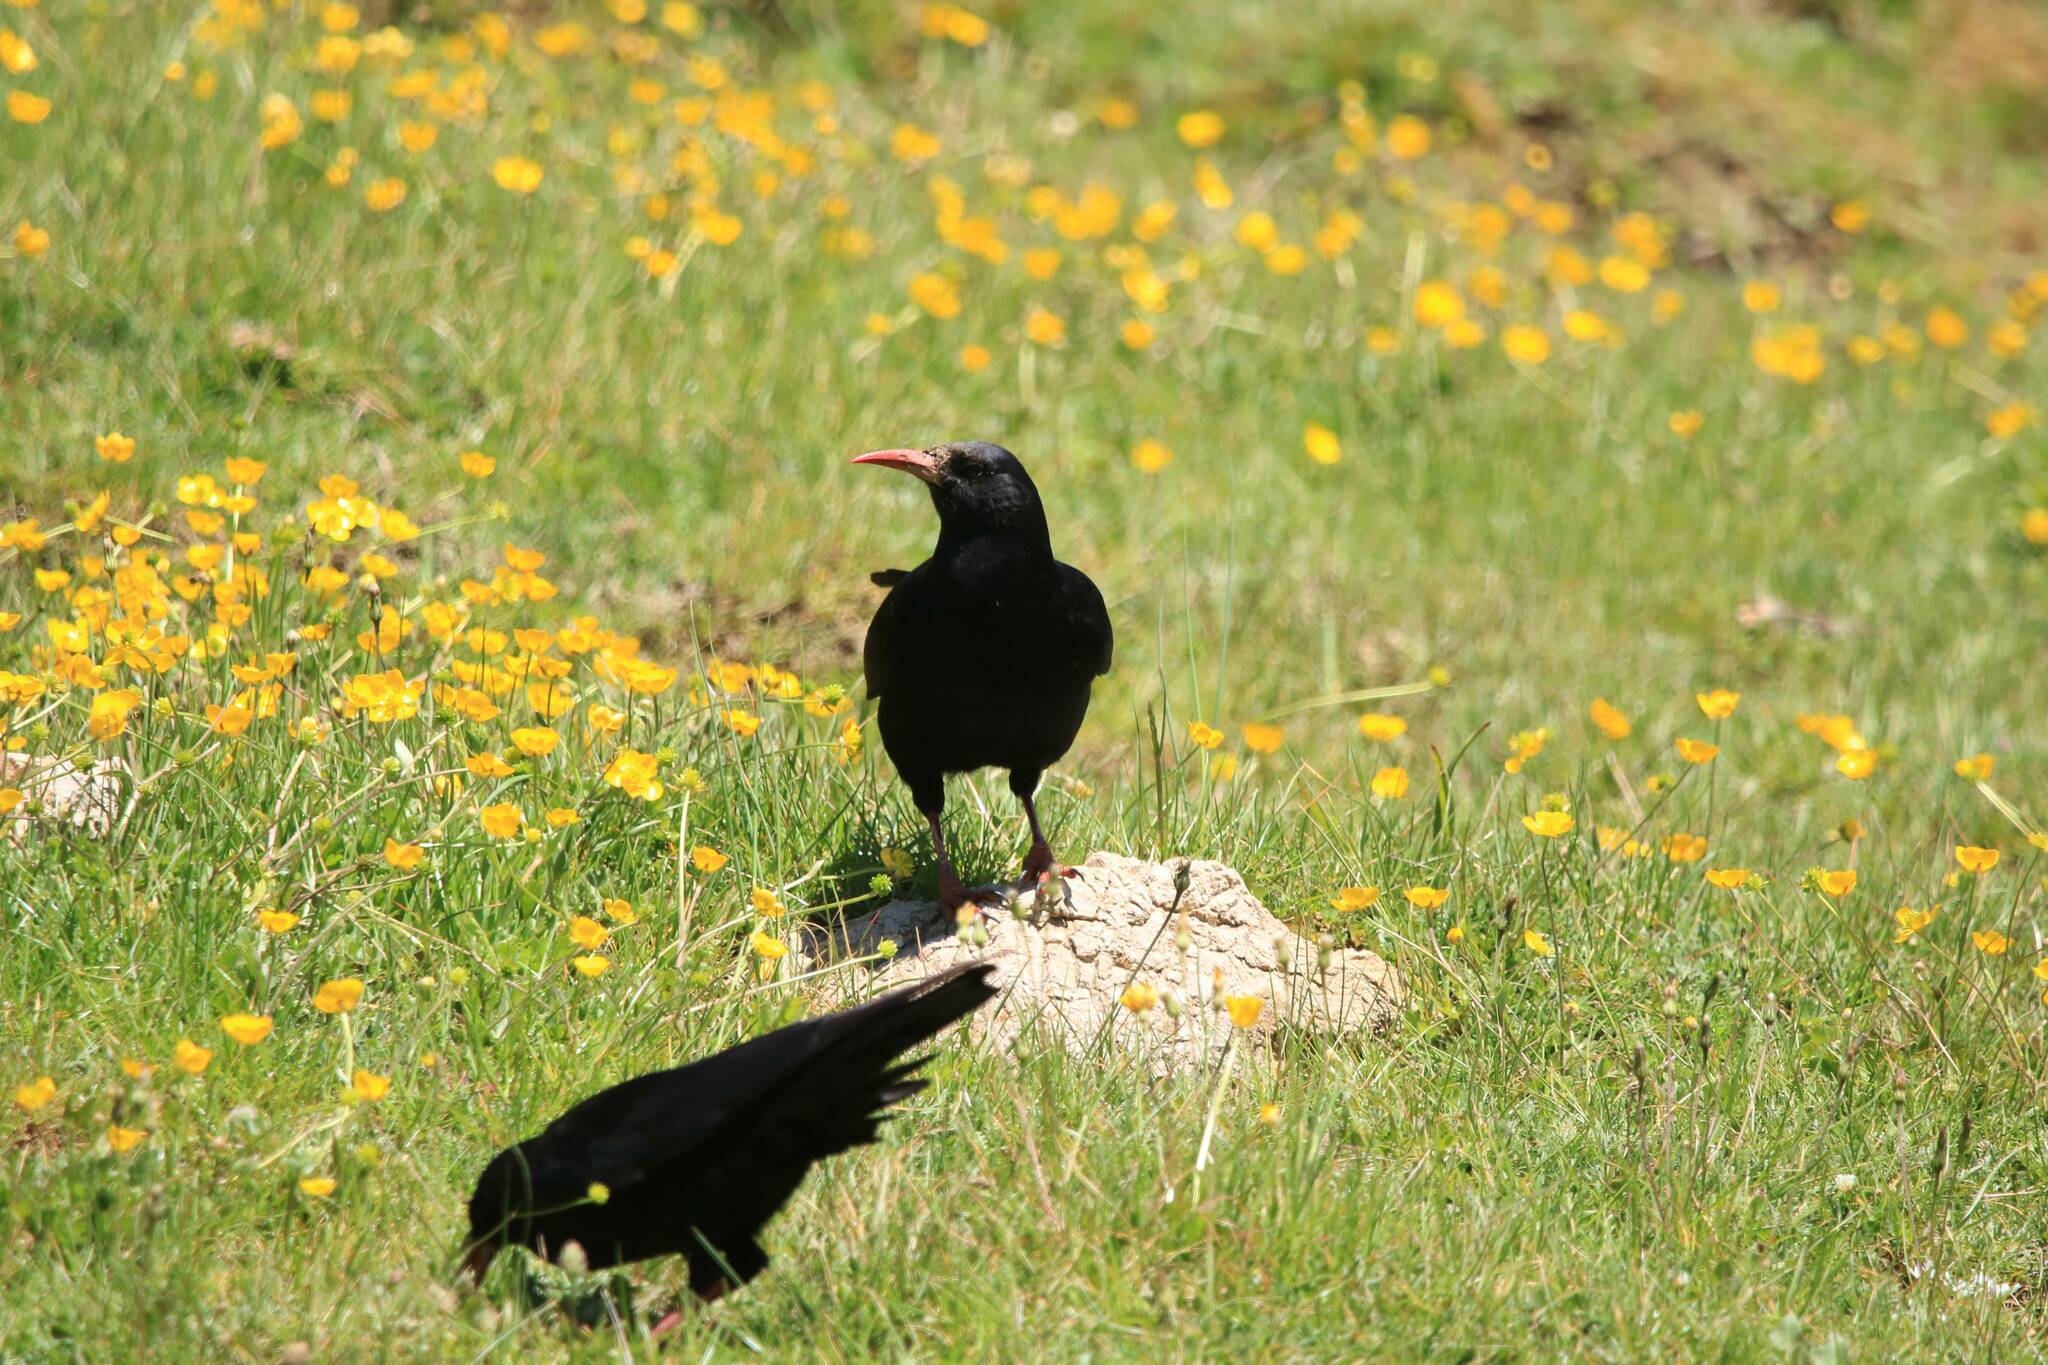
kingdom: Animalia
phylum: Chordata
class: Aves
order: Passeriformes
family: Corvidae
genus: Pyrrhocorax
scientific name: Pyrrhocorax pyrrhocorax
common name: Red-billed chough
